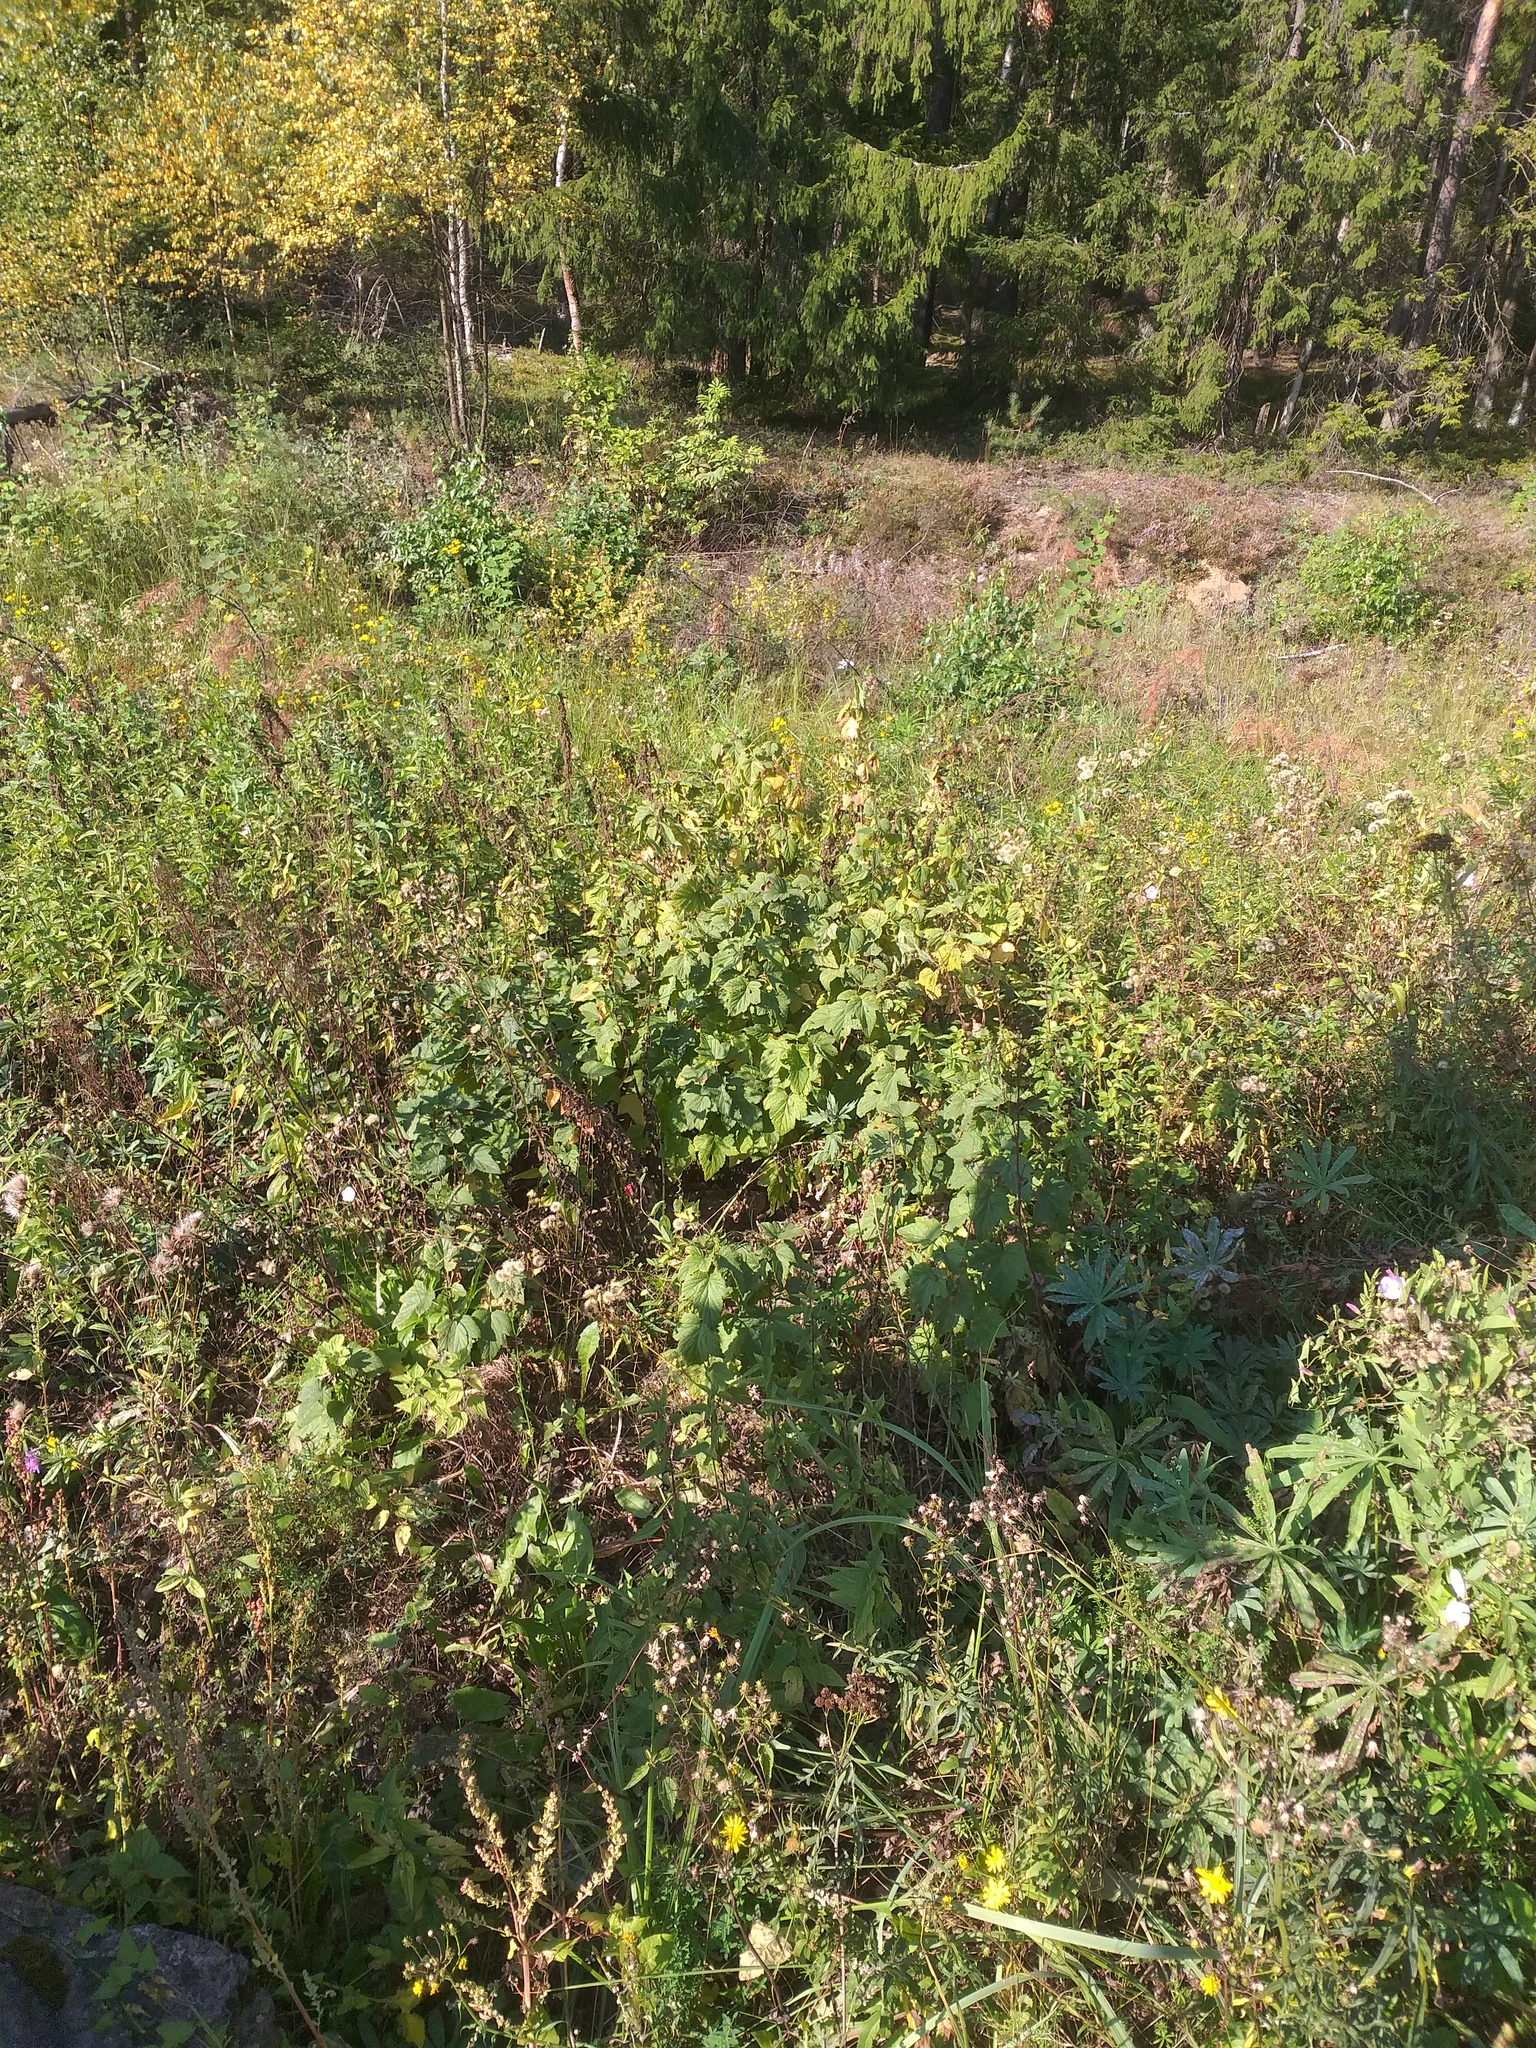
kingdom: Plantae
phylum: Tracheophyta
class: Magnoliopsida
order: Saxifragales
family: Grossulariaceae
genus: Ribes
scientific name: Ribes nigrum
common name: Black currant
